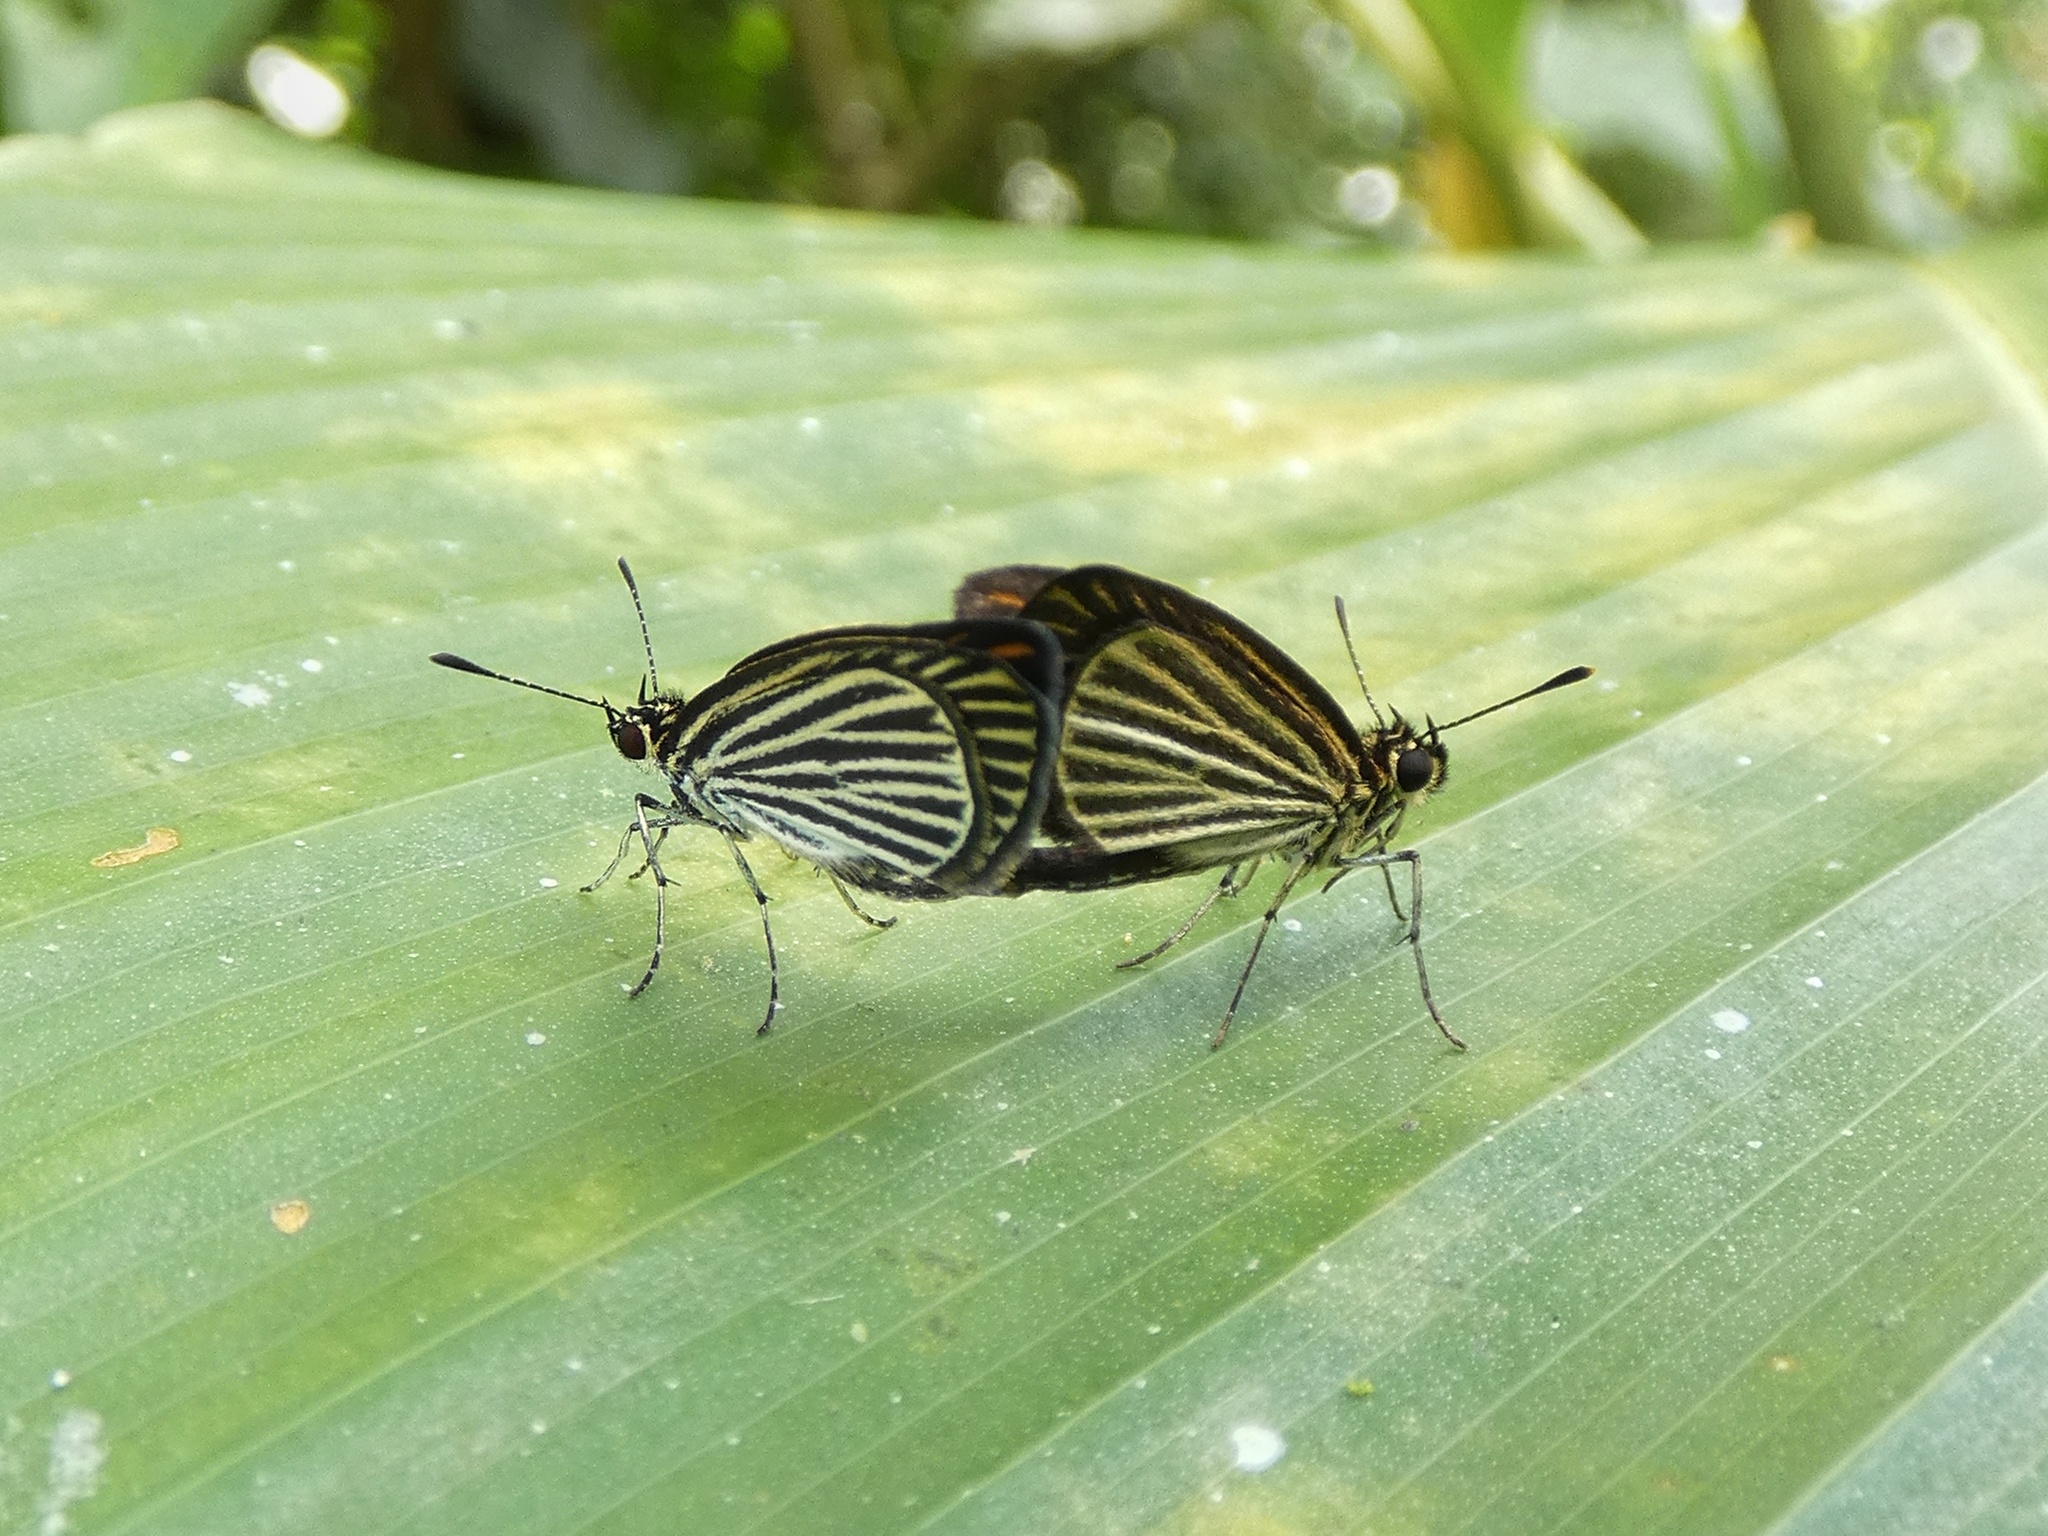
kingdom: Animalia
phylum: Arthropoda
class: Insecta
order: Lepidoptera
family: Hesperiidae
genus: Apaustus
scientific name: Apaustus gracilis
